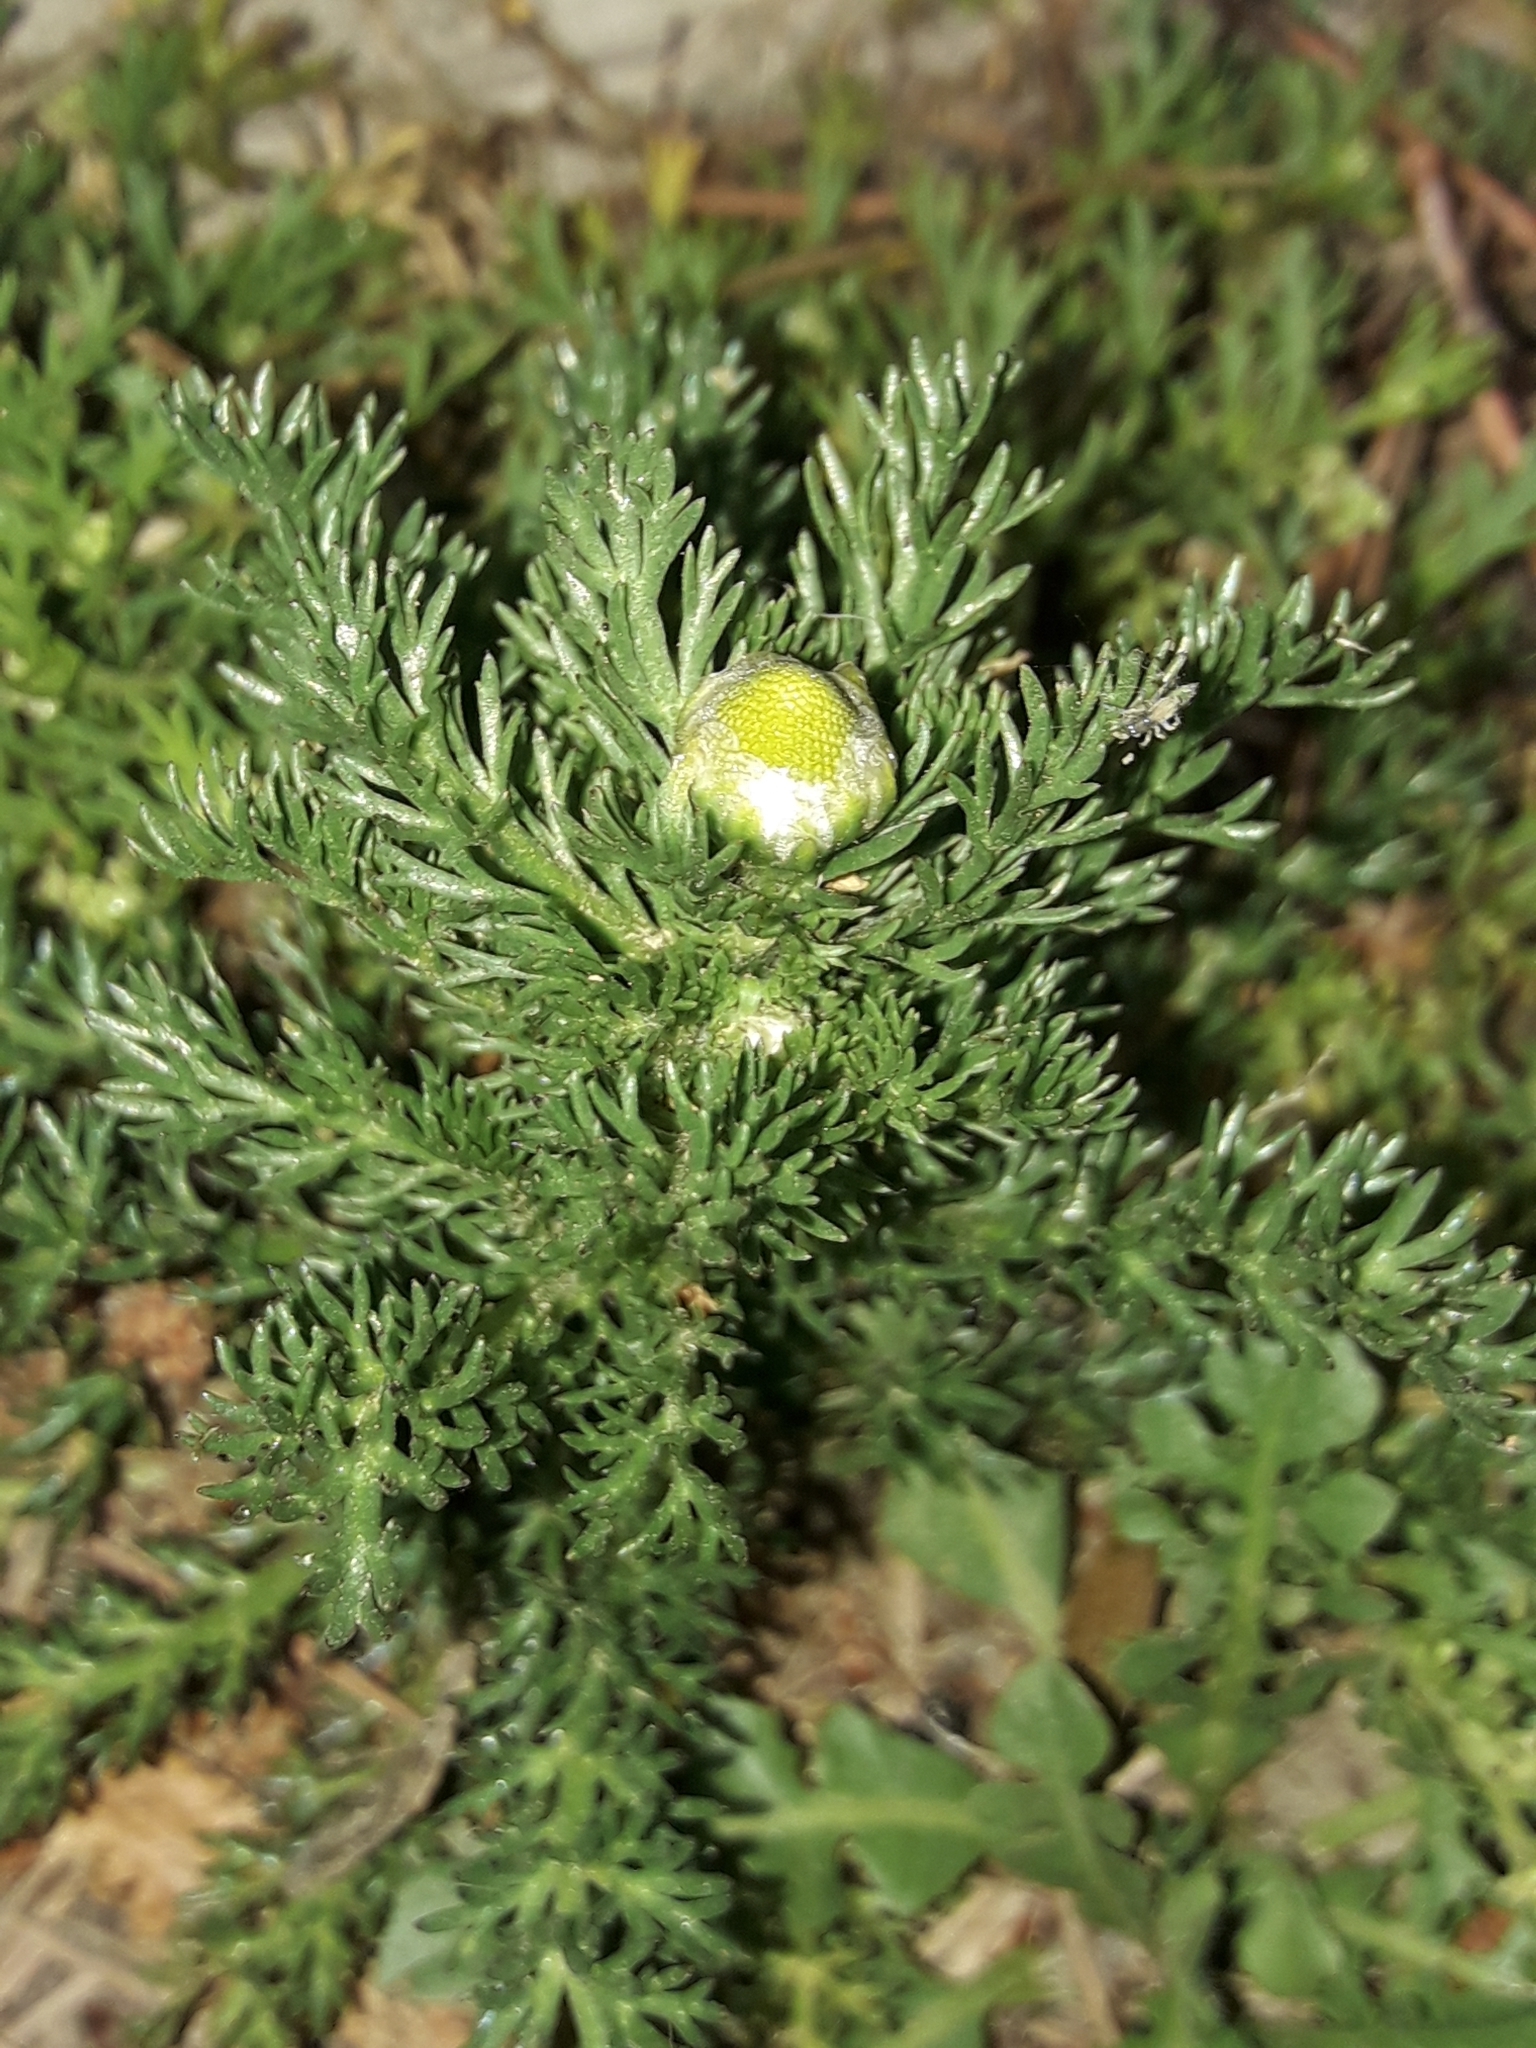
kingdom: Plantae
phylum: Tracheophyta
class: Magnoliopsida
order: Asterales
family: Asteraceae
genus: Matricaria
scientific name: Matricaria discoidea
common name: Disc mayweed
